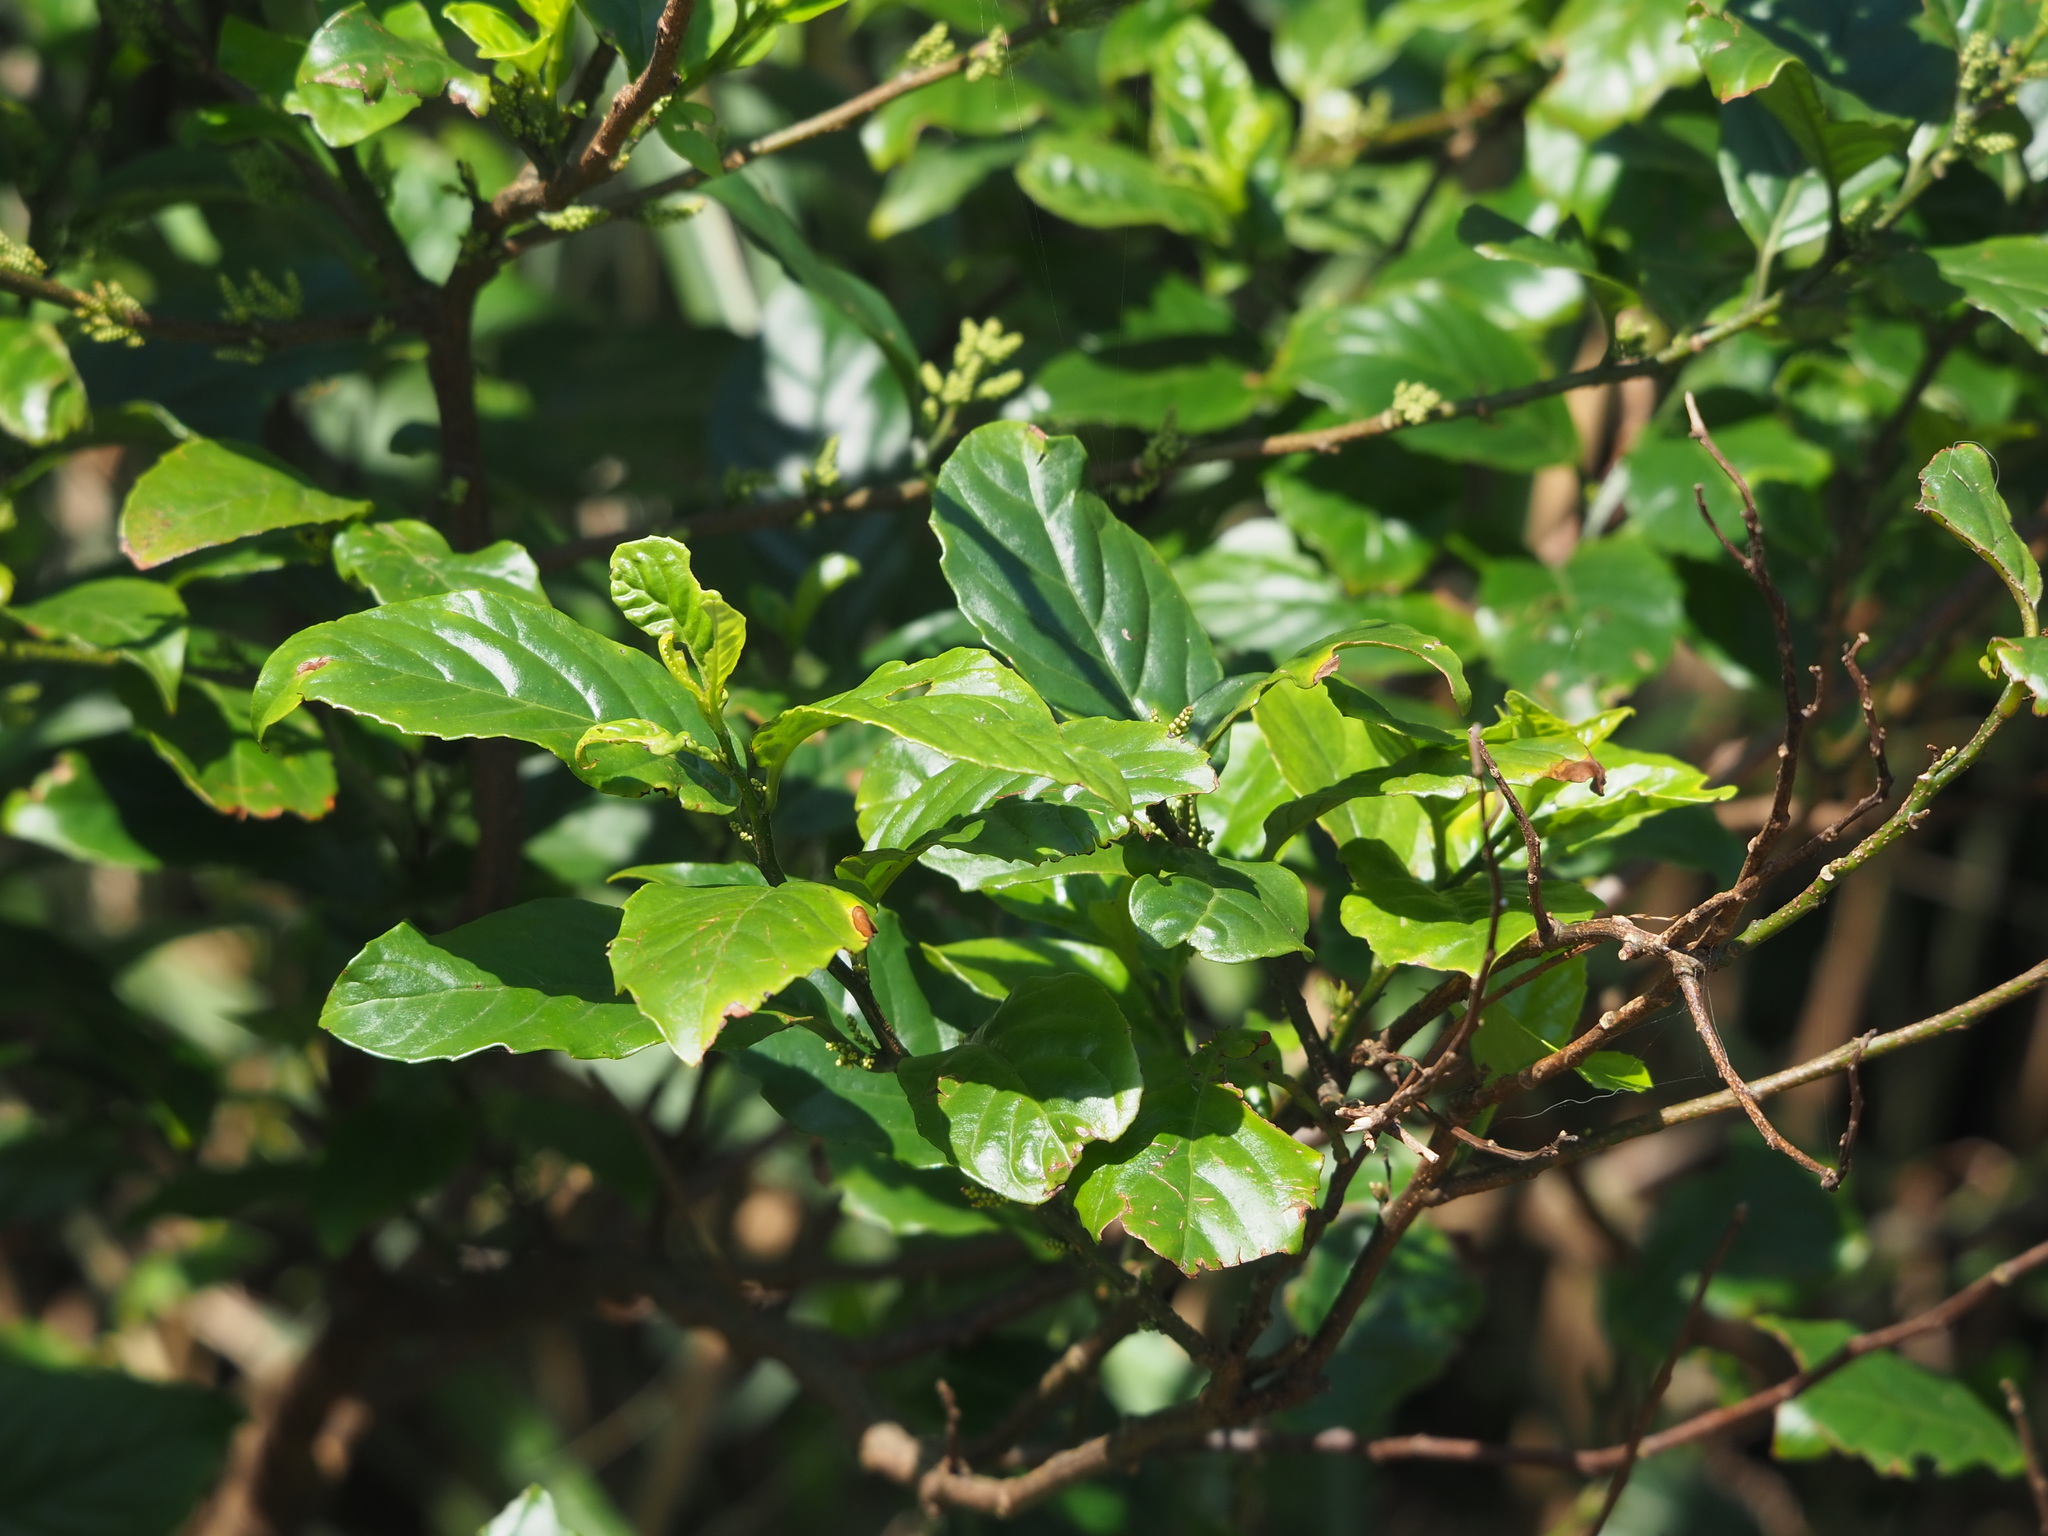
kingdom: Plantae
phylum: Tracheophyta
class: Magnoliopsida
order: Ericales
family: Primulaceae
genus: Maesa
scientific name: Maesa perlaria
